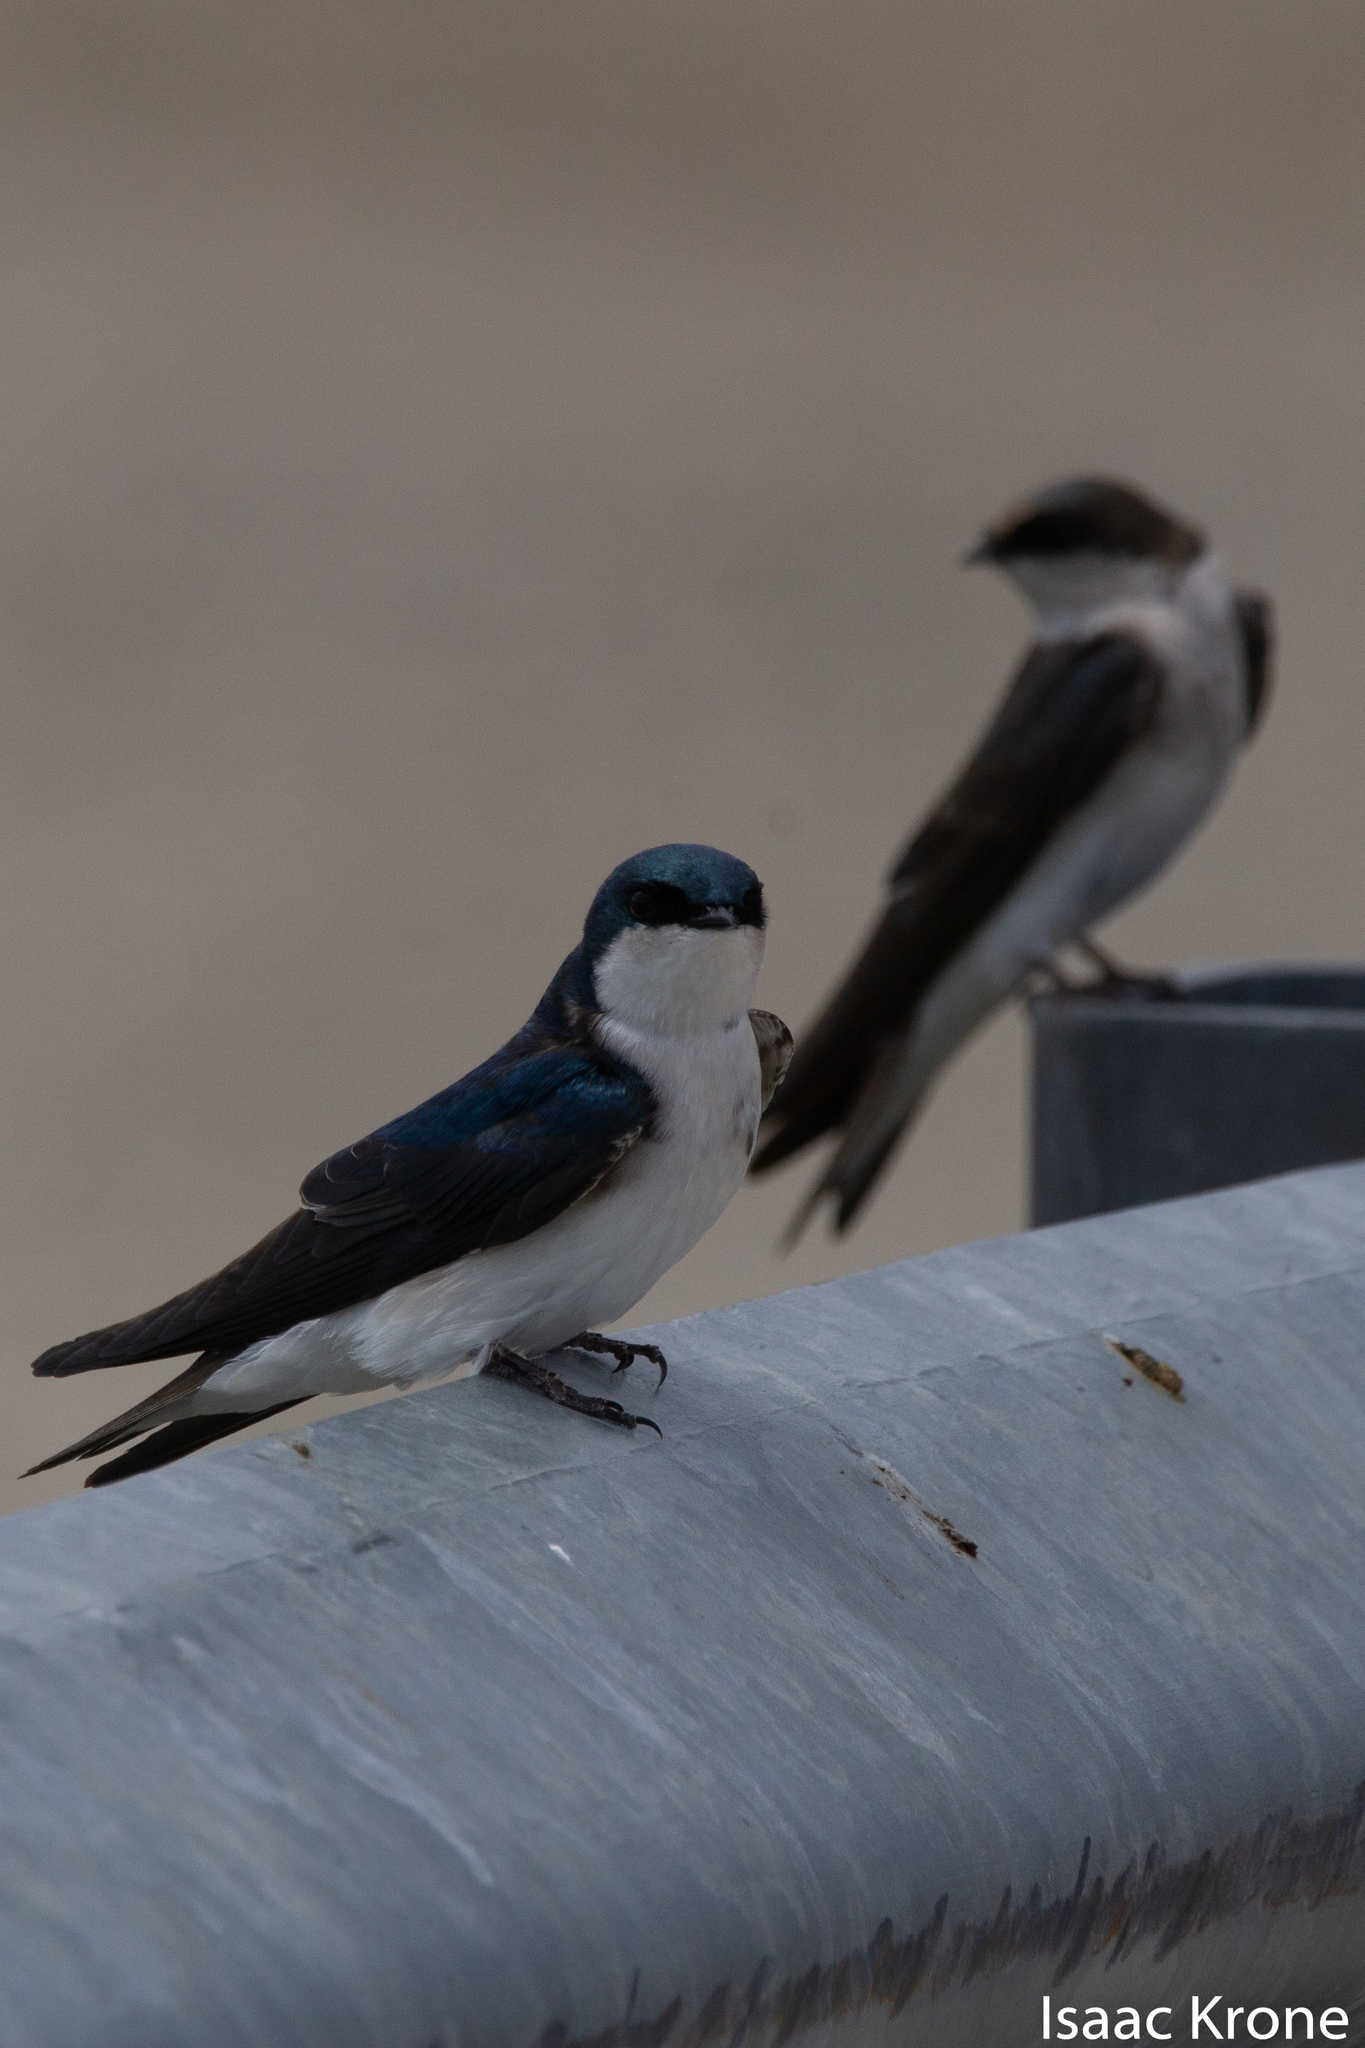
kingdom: Animalia
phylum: Chordata
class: Aves
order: Passeriformes
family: Hirundinidae
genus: Tachycineta
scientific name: Tachycineta bicolor
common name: Tree swallow
